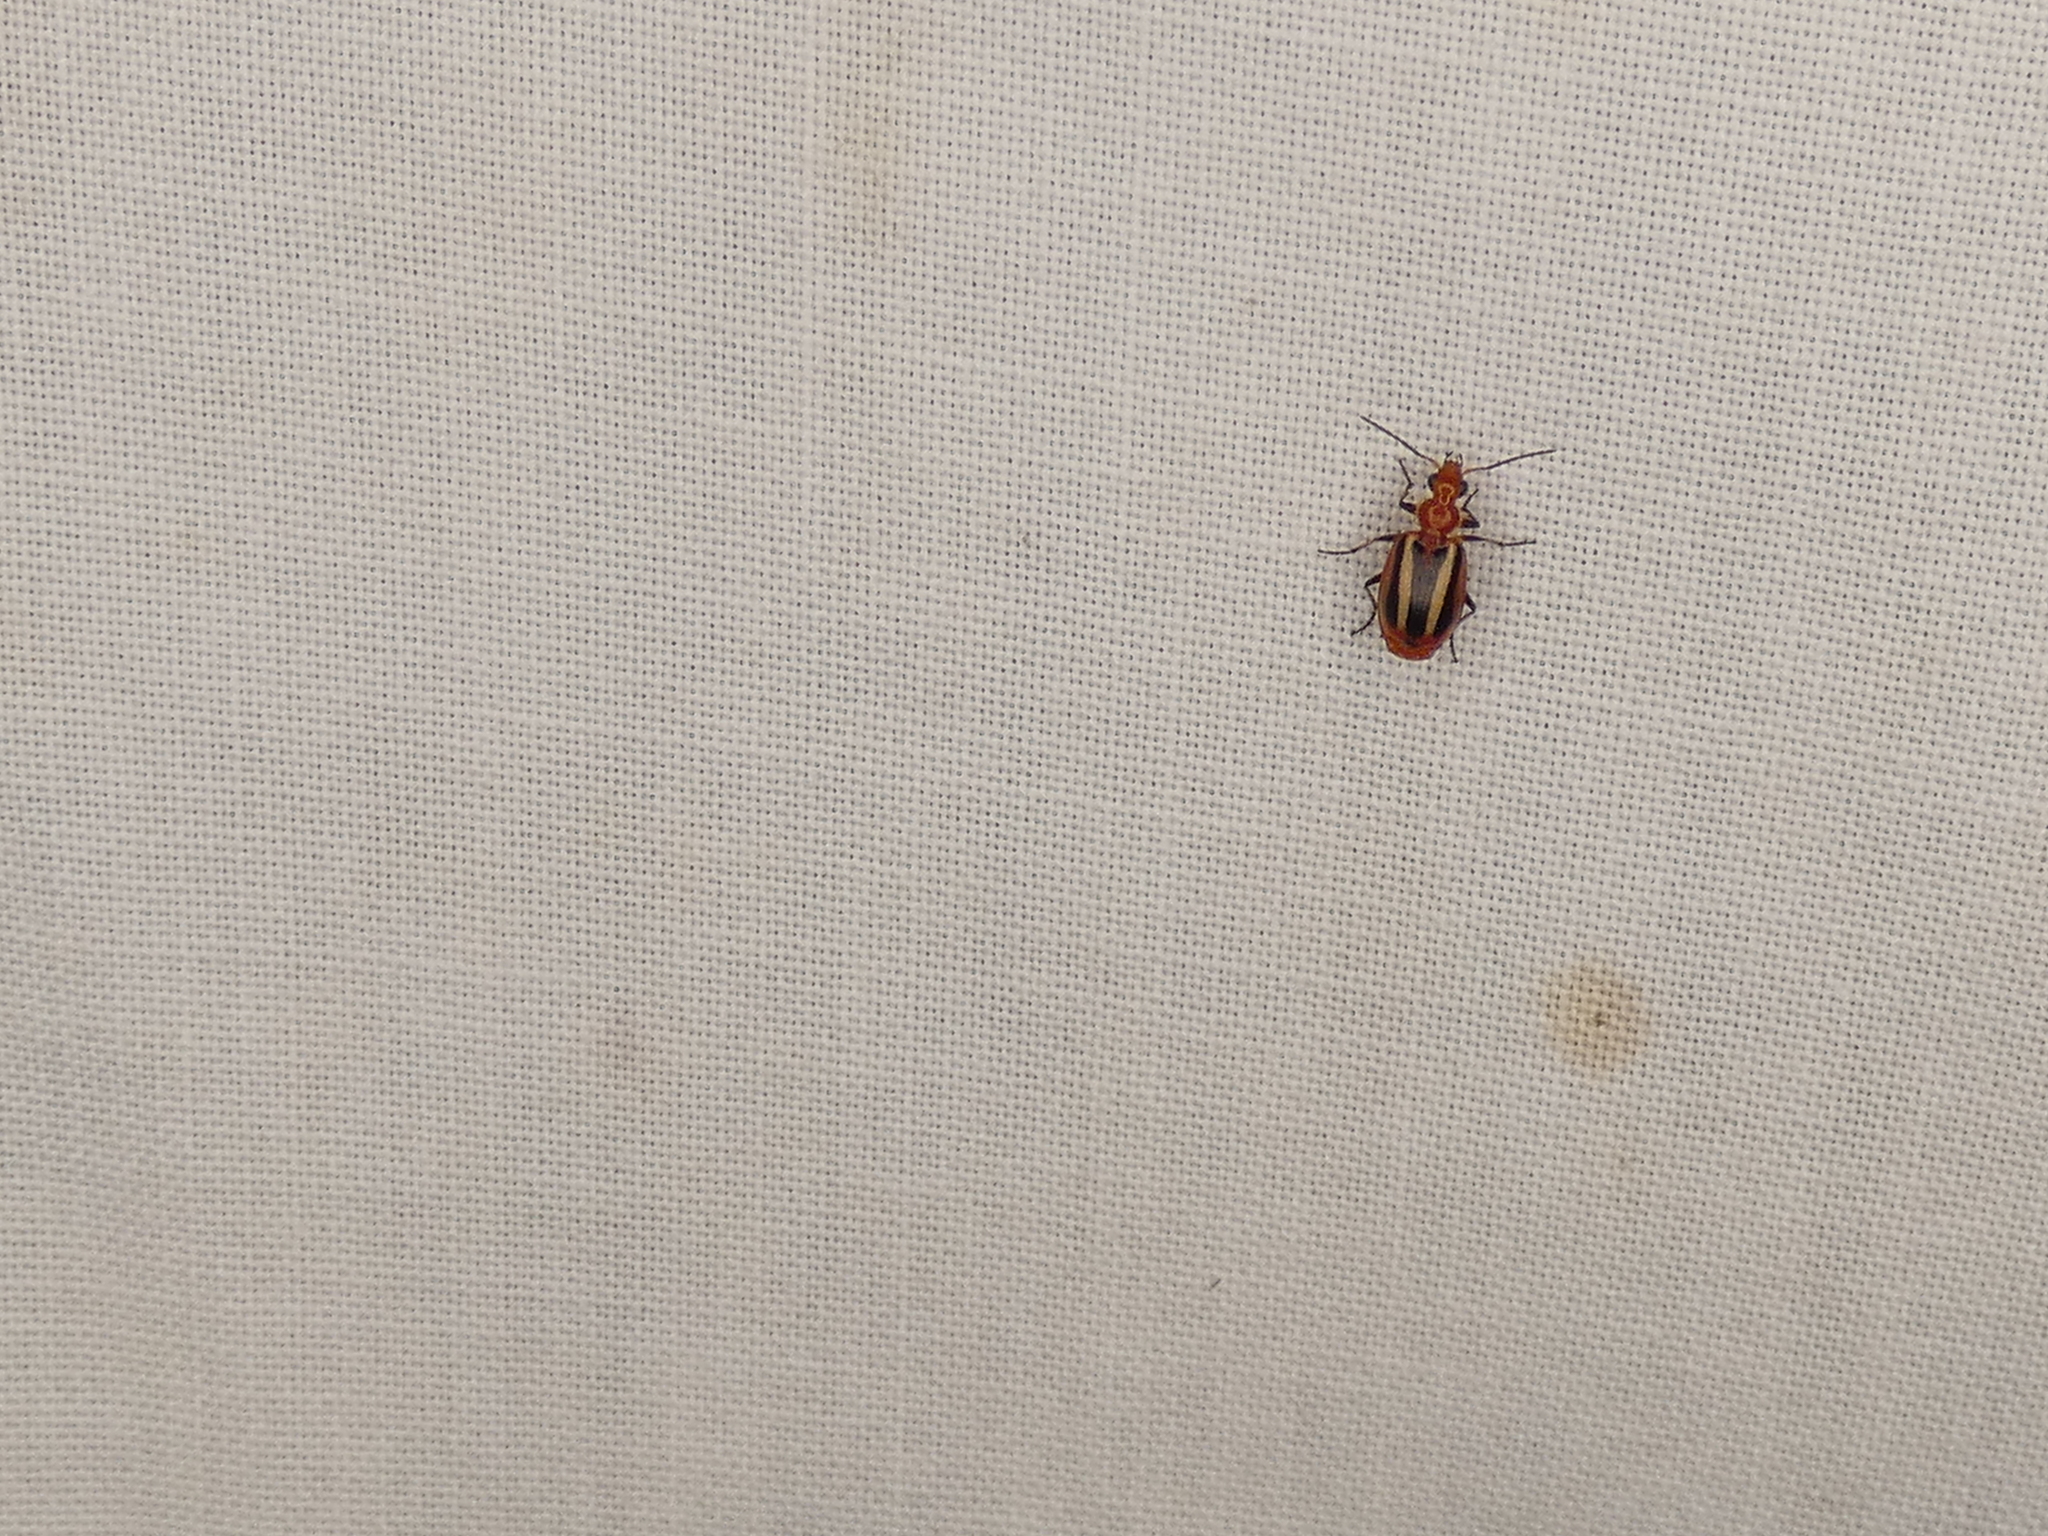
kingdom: Animalia
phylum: Arthropoda
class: Insecta
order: Coleoptera
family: Carabidae
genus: Lebia
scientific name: Lebia vittata
